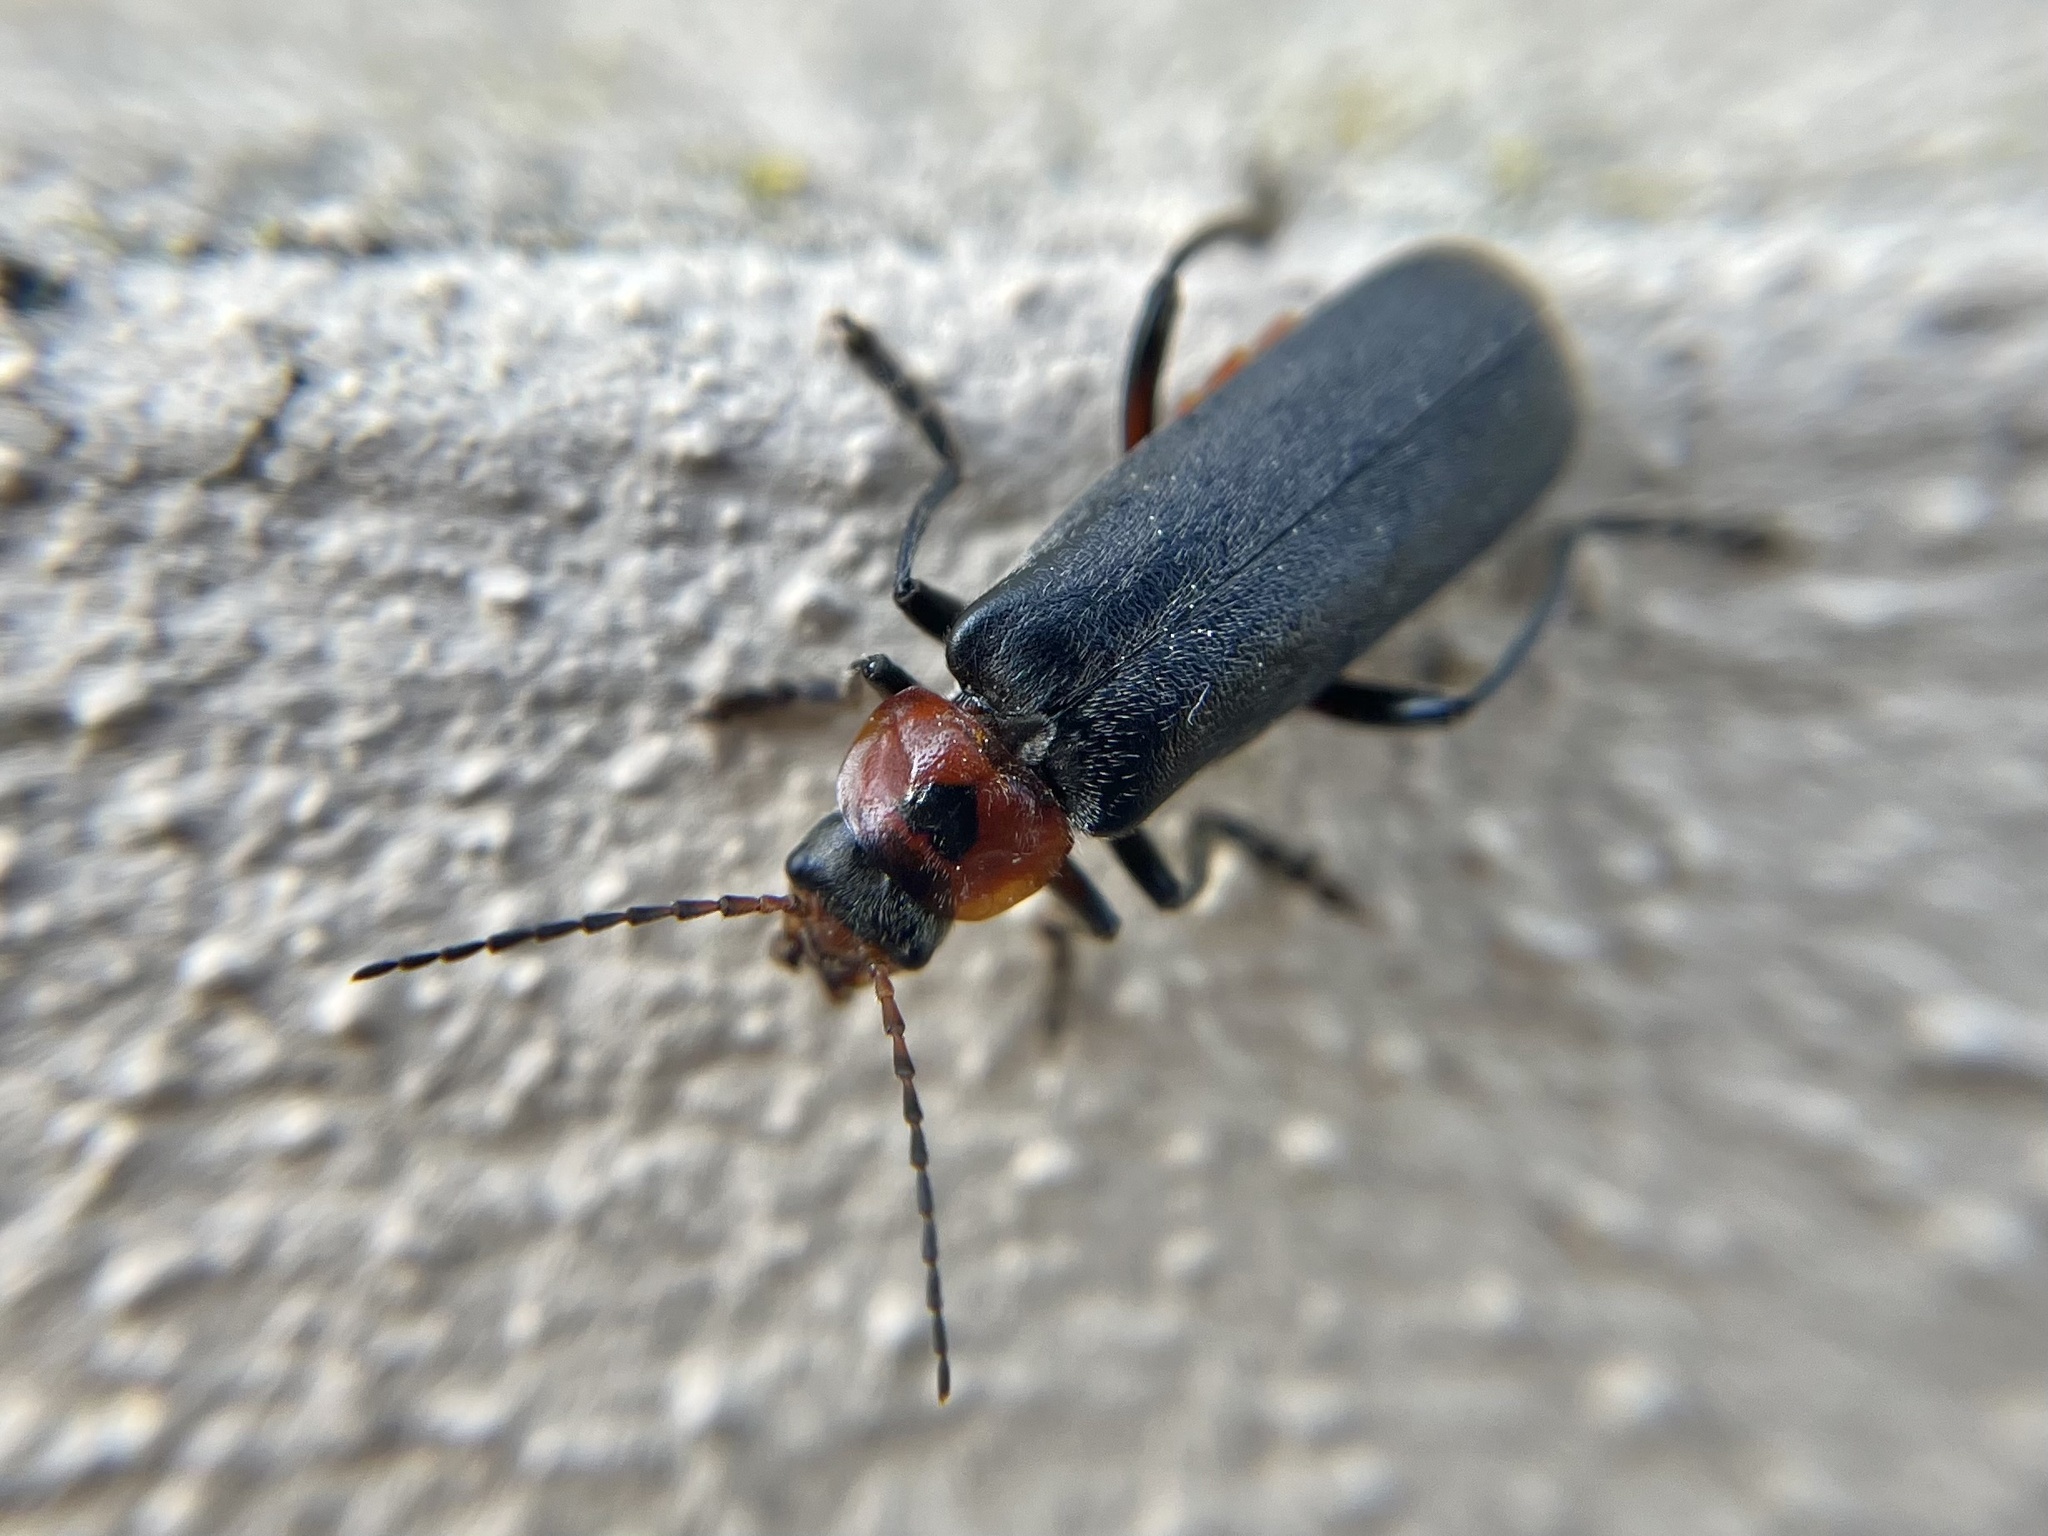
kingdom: Animalia
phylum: Arthropoda
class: Insecta
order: Coleoptera
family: Cantharidae
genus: Cantharis
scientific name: Cantharis rustica
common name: Soldier beetle
